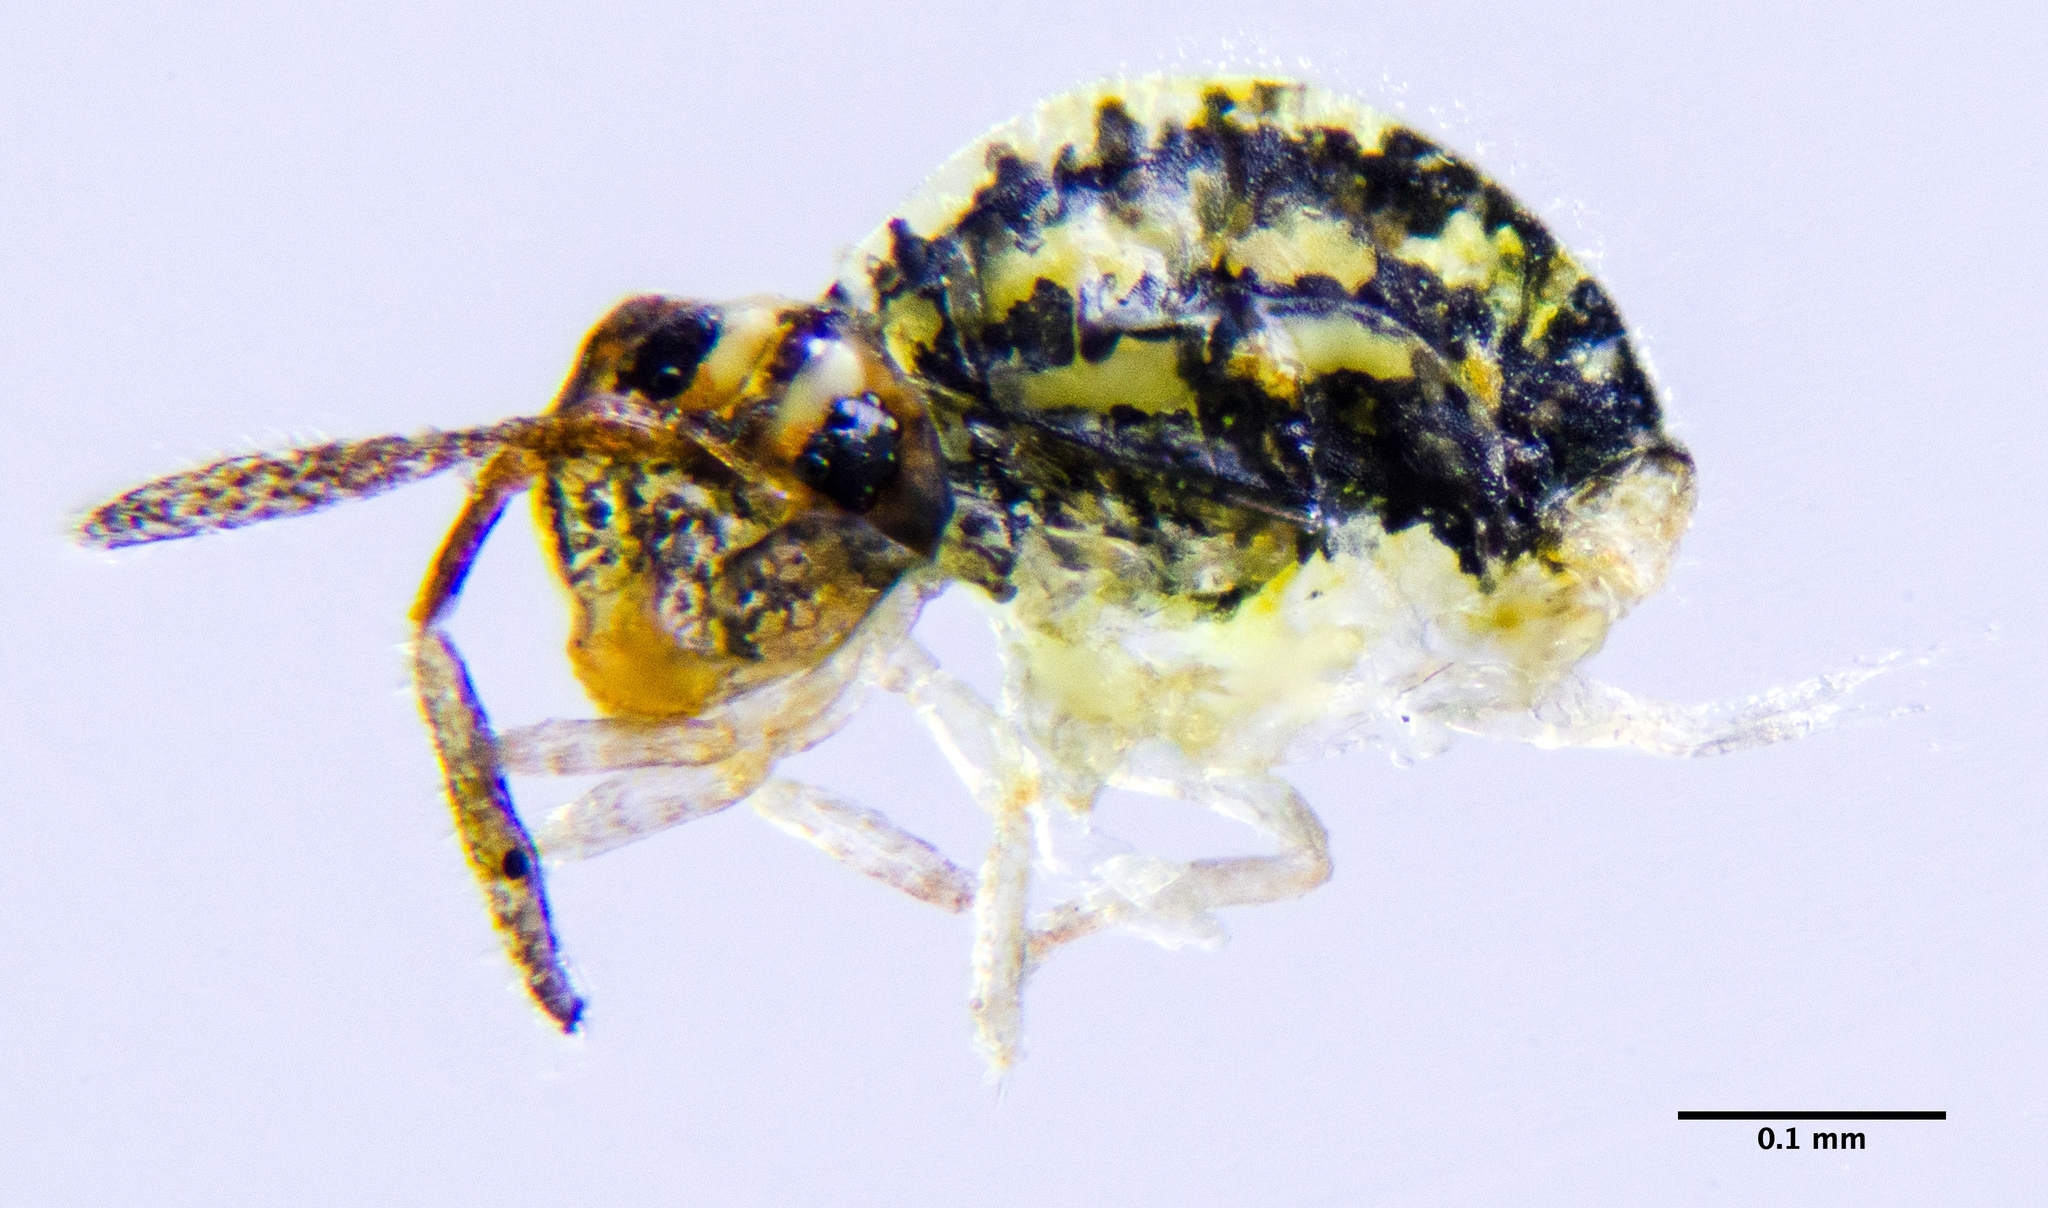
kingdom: Animalia
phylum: Arthropoda
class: Collembola
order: Symphypleona
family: Katiannidae
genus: Sminthurinus
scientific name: Sminthurinus elegans
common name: Globular springtail
